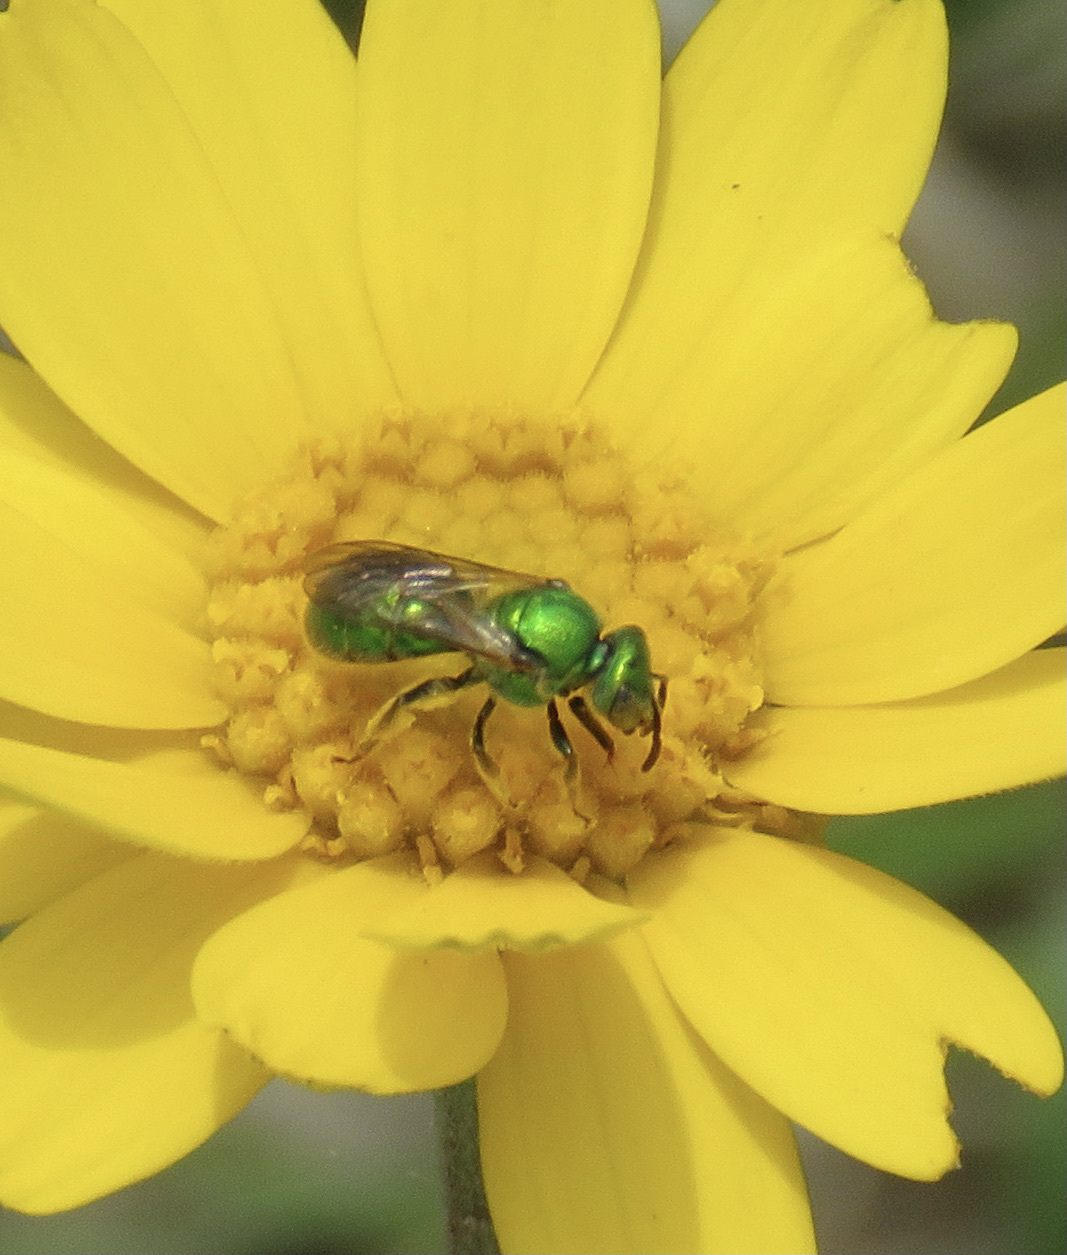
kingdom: Animalia
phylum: Arthropoda
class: Insecta
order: Hymenoptera
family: Halictidae
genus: Augochlora
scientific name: Augochlora pura
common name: Pure green sweat bee
